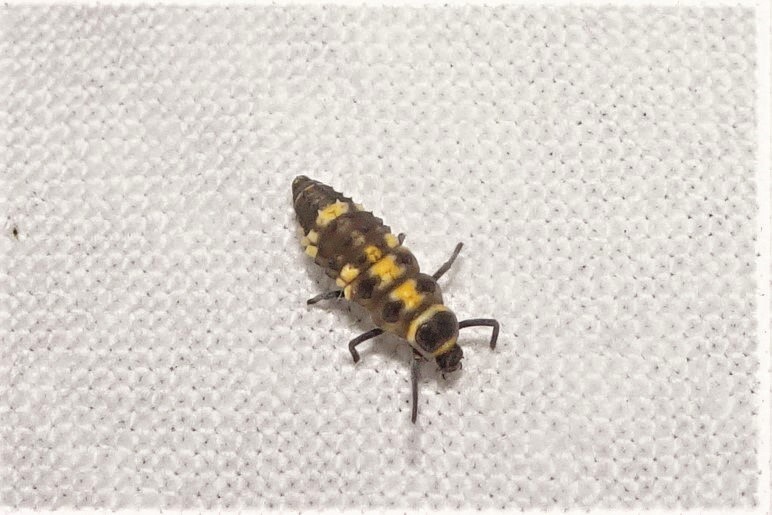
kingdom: Animalia
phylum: Arthropoda
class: Insecta
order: Coleoptera
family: Coccinellidae
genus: Coelophora
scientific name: Coelophora inaequalis
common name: Common australian lady beetle
